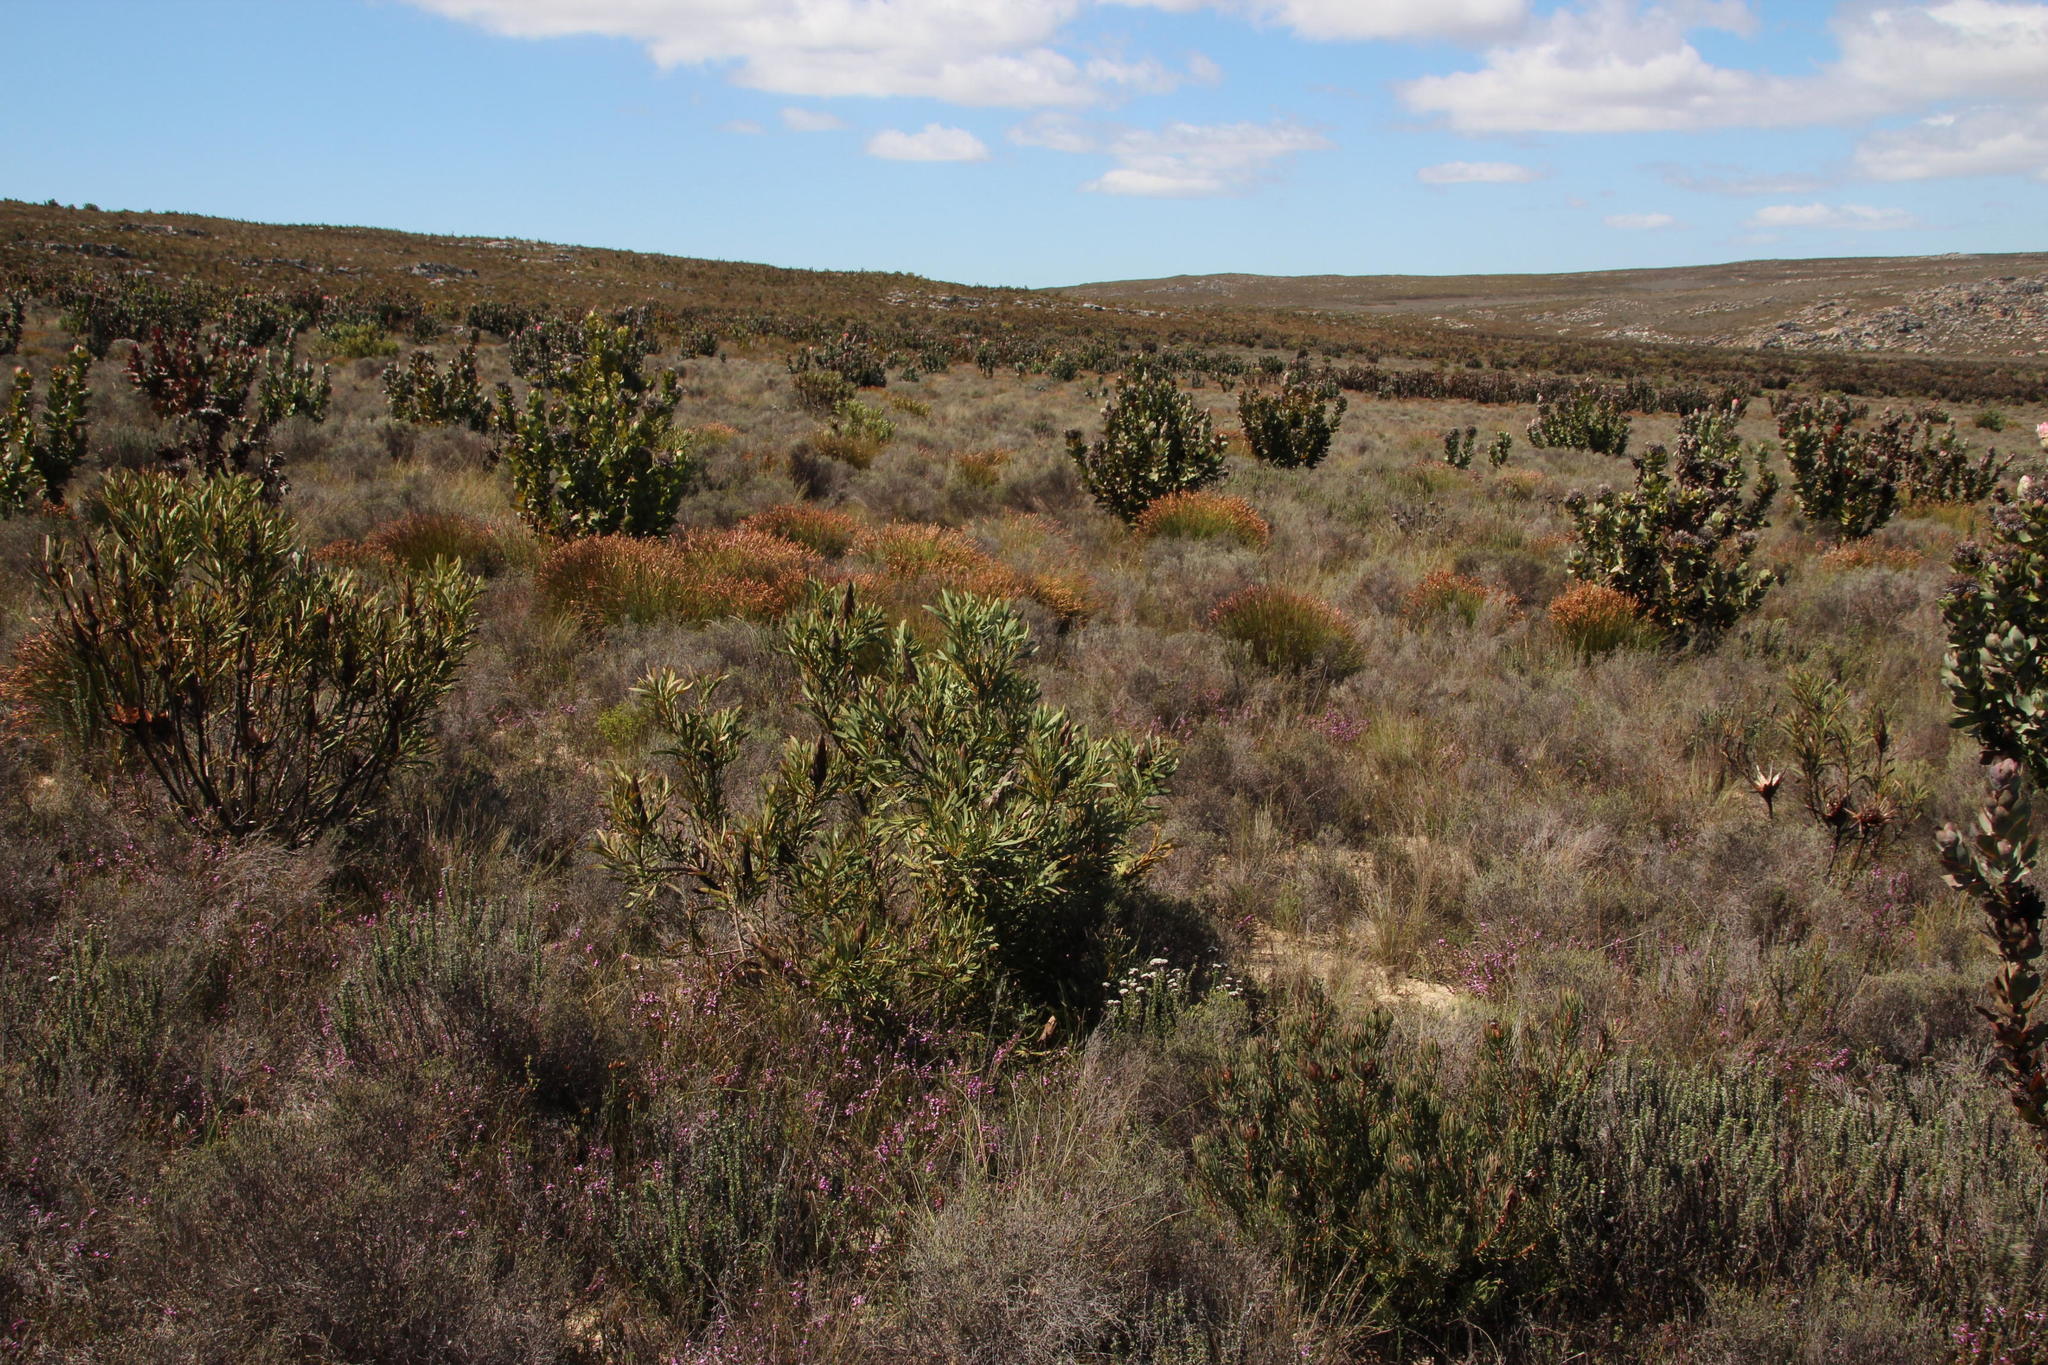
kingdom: Plantae
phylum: Tracheophyta
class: Magnoliopsida
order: Proteales
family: Proteaceae
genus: Protea
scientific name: Protea repens
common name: Sugarbush
